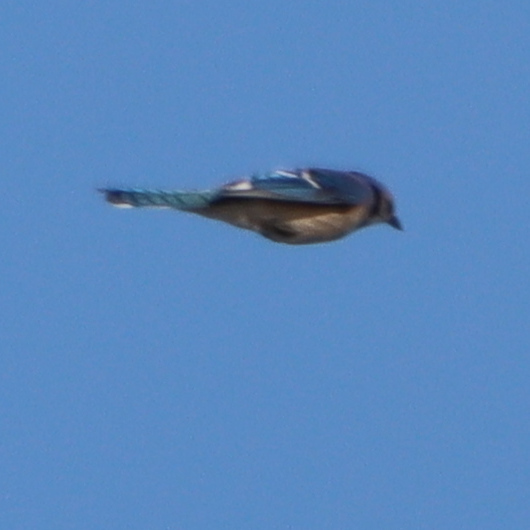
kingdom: Animalia
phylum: Chordata
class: Aves
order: Passeriformes
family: Corvidae
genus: Cyanocitta
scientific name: Cyanocitta cristata
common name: Blue jay
